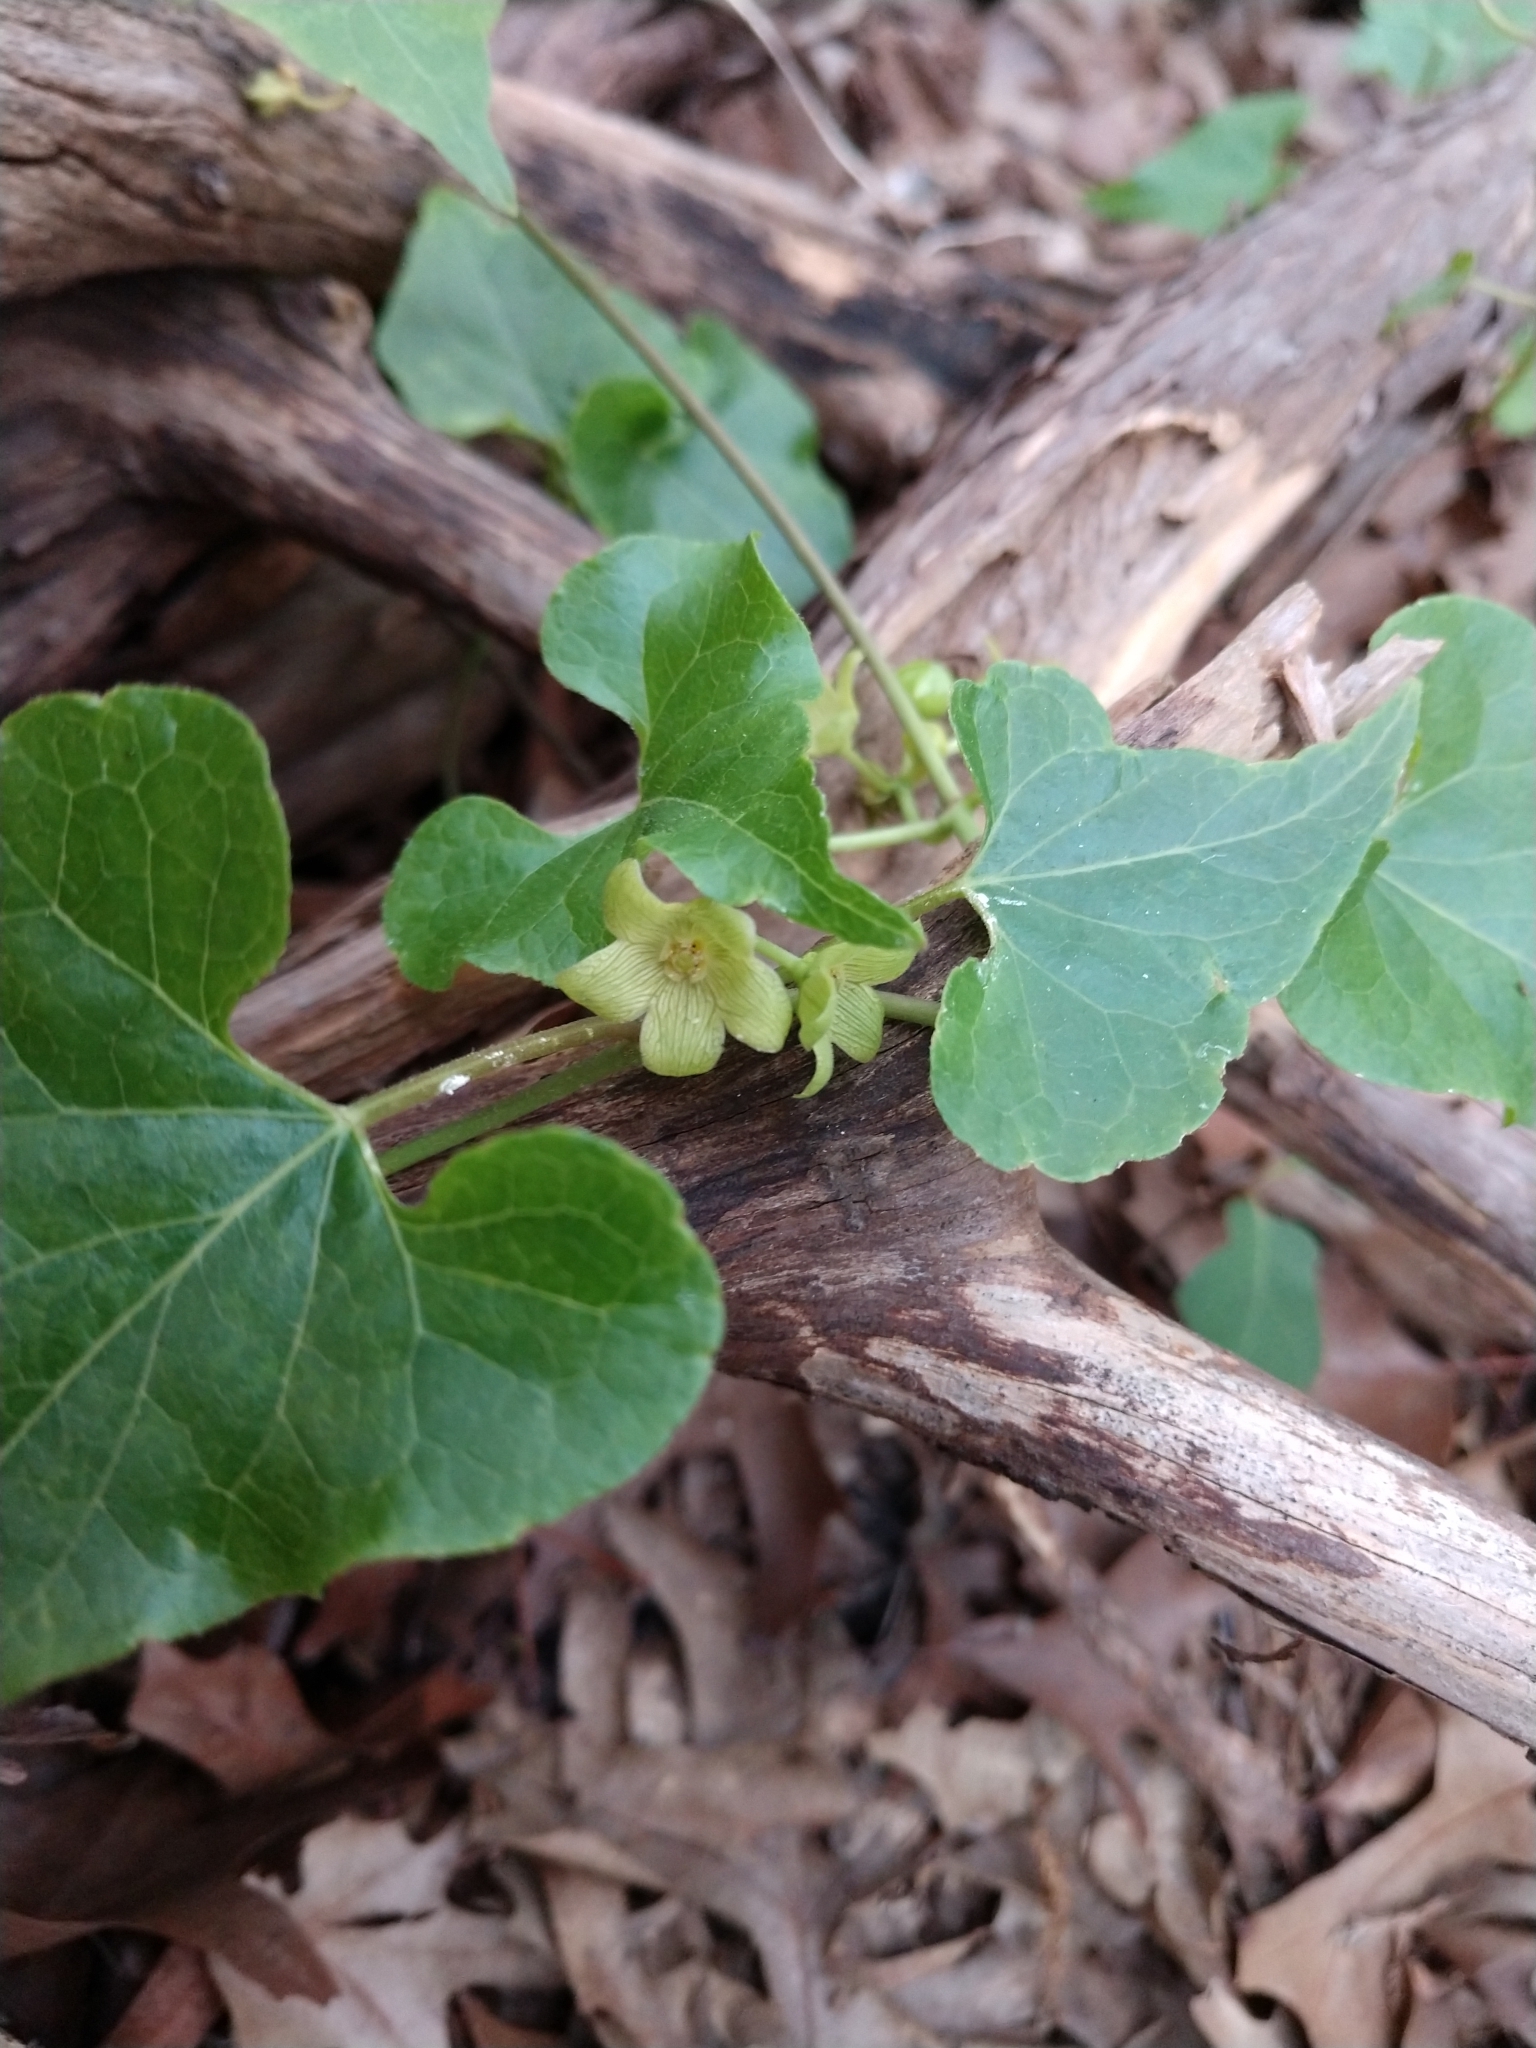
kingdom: Plantae
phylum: Tracheophyta
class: Magnoliopsida
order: Gentianales
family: Apocynaceae
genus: Matelea
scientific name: Matelea edwardsensis
